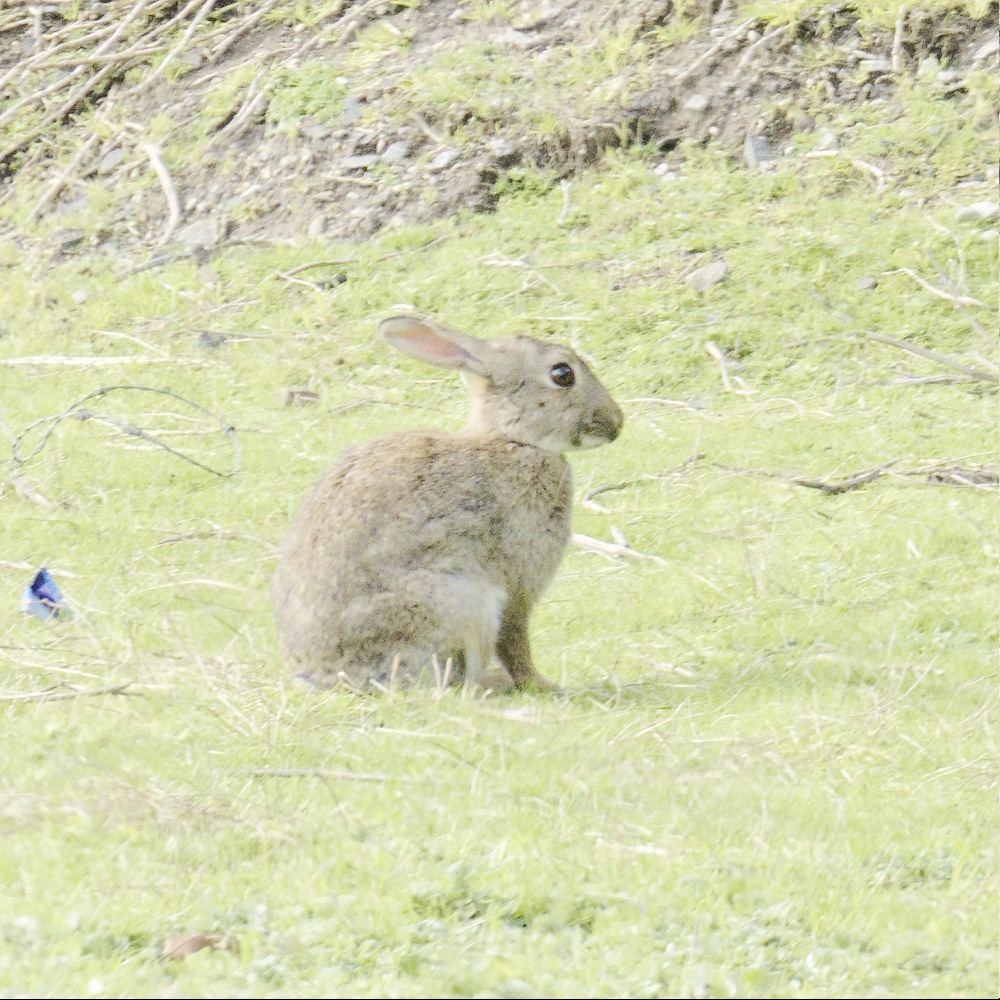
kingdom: Animalia
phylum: Chordata
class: Mammalia
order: Lagomorpha
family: Leporidae
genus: Oryctolagus
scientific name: Oryctolagus cuniculus
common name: European rabbit
